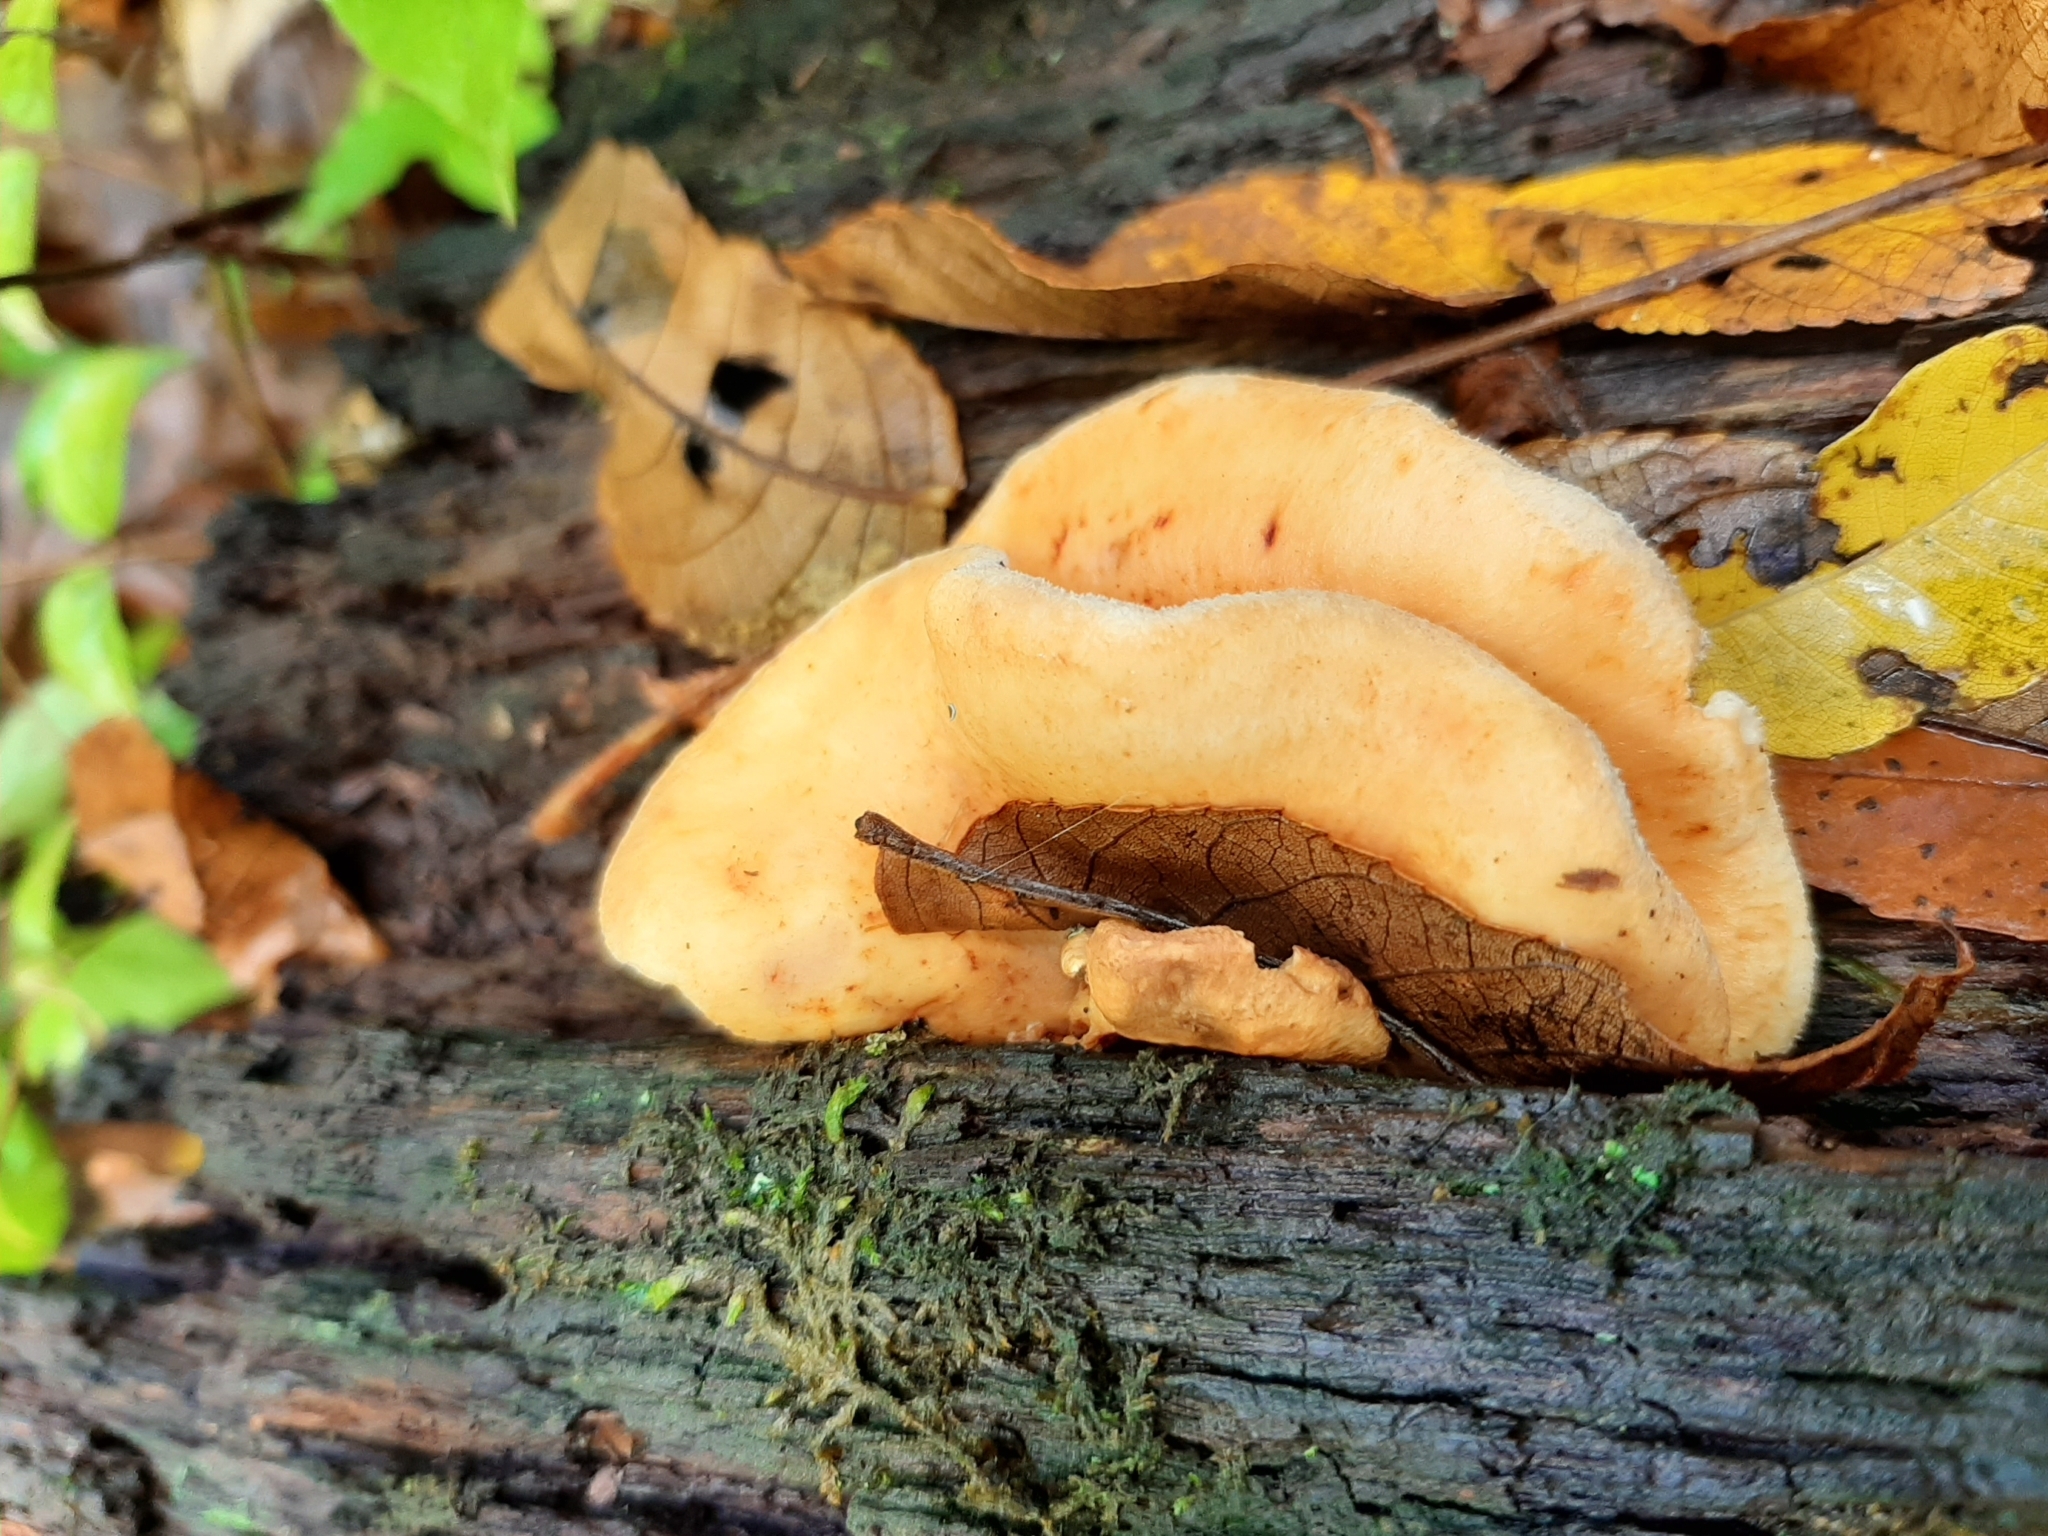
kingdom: Fungi
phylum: Basidiomycota
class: Agaricomycetes
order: Agaricales
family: Phyllotopsidaceae
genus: Phyllotopsis
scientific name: Phyllotopsis nidulans
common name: Orange mock oyster
